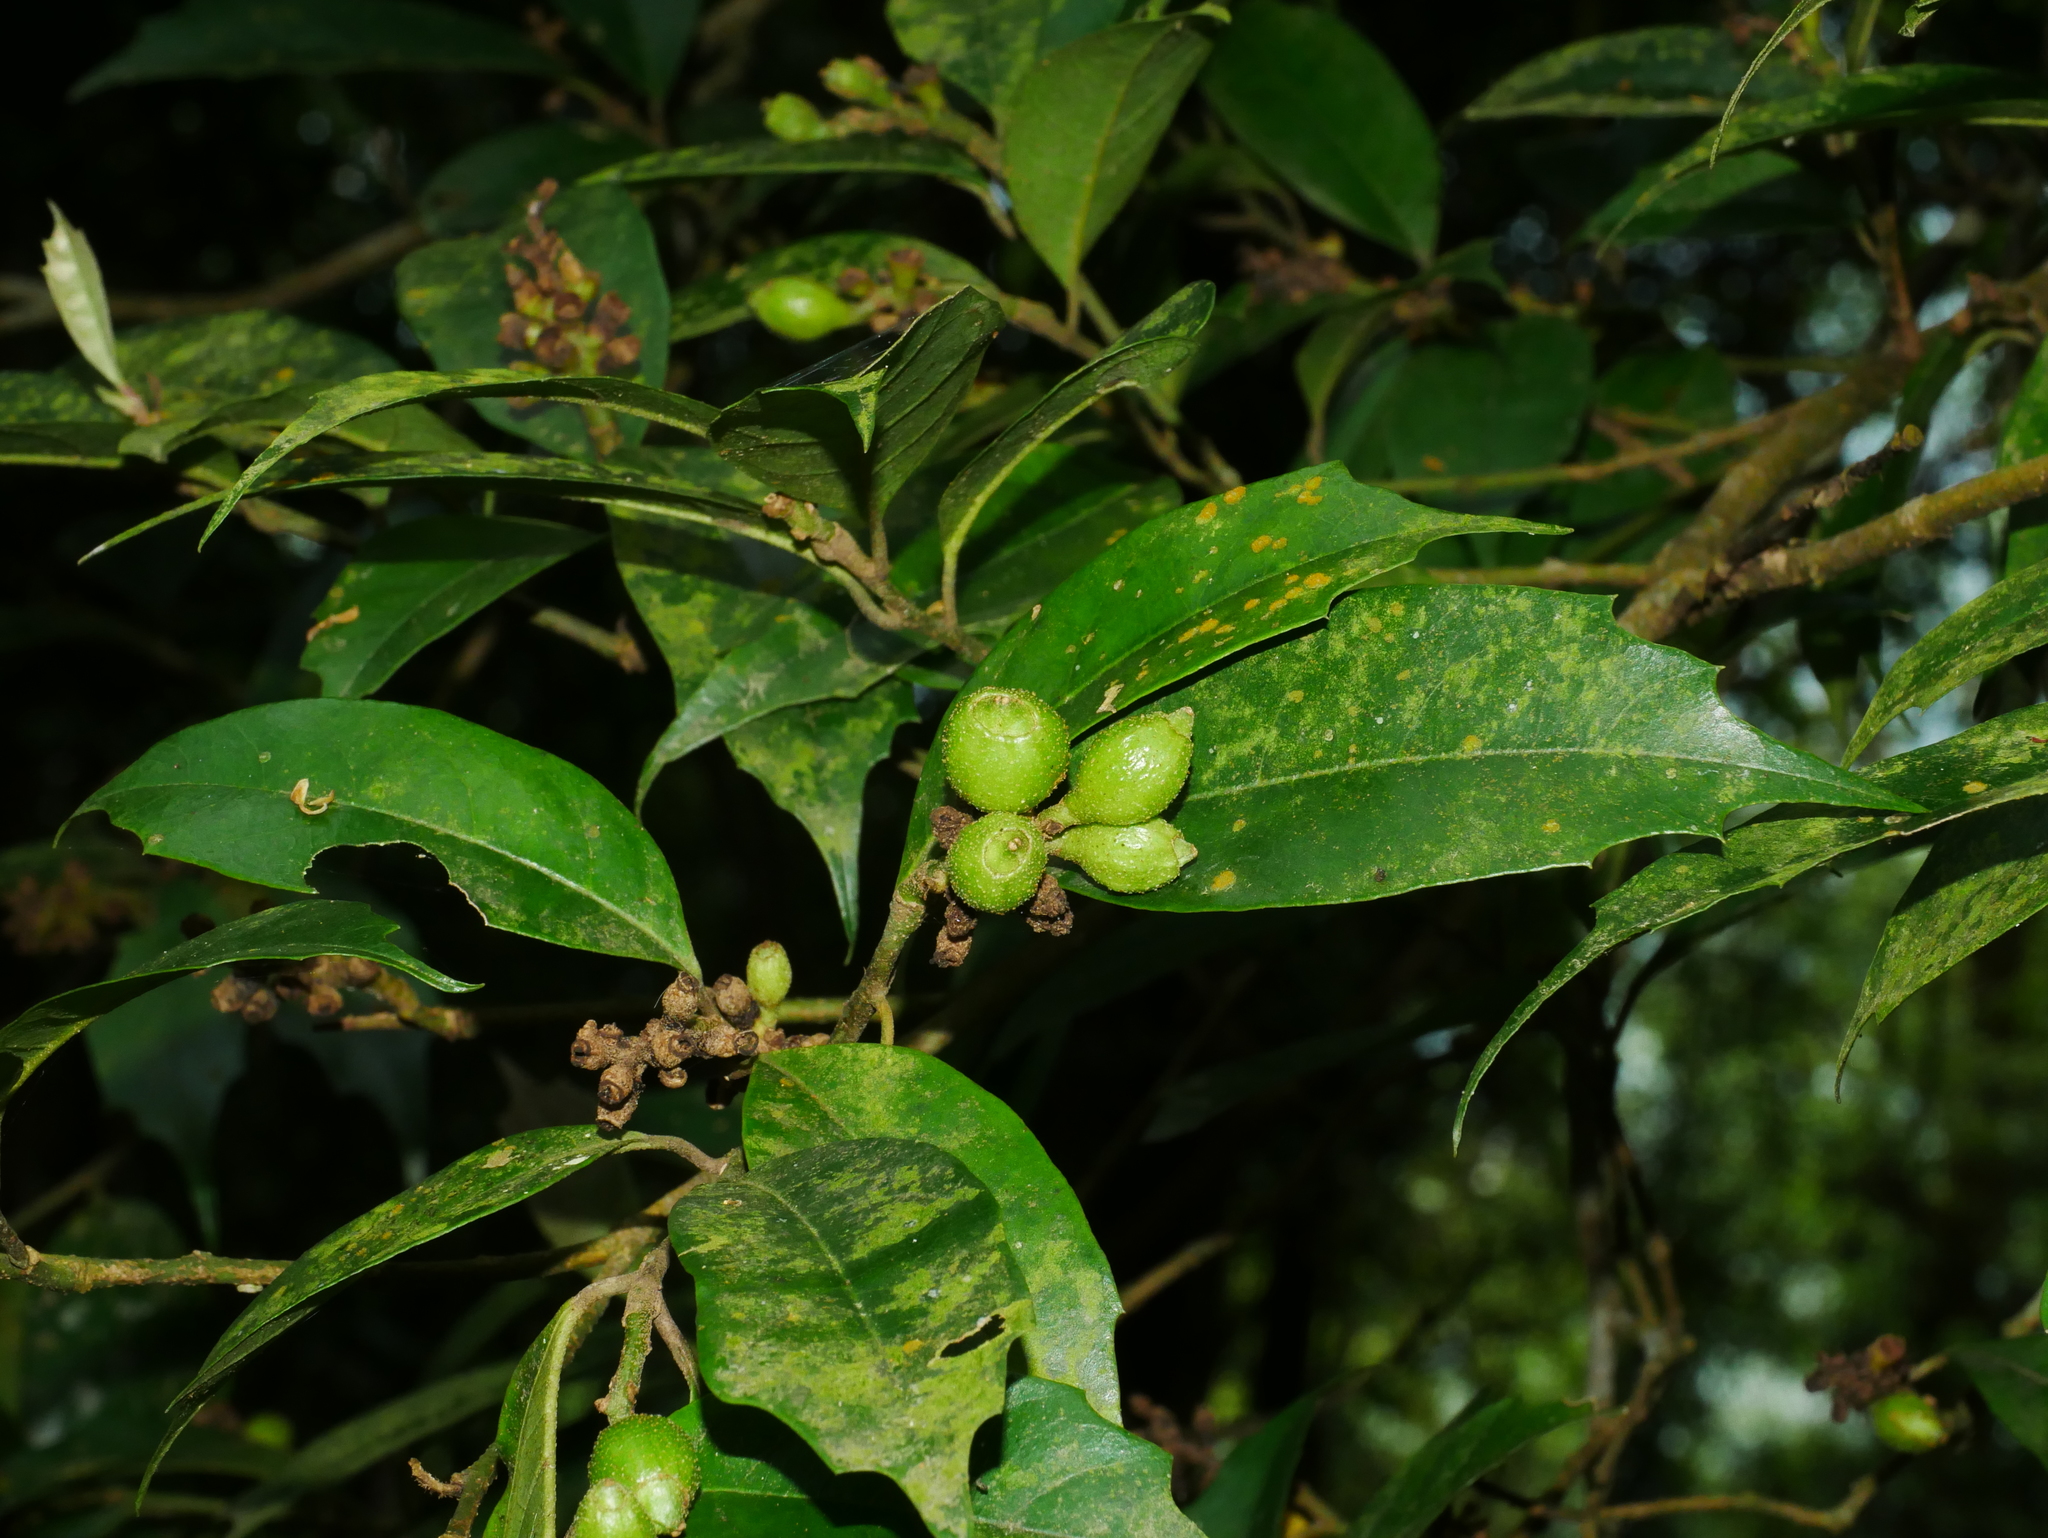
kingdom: Plantae
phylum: Tracheophyta
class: Magnoliopsida
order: Saxifragales
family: Hamamelidaceae
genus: Eustigma
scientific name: Eustigma oblongifolium
